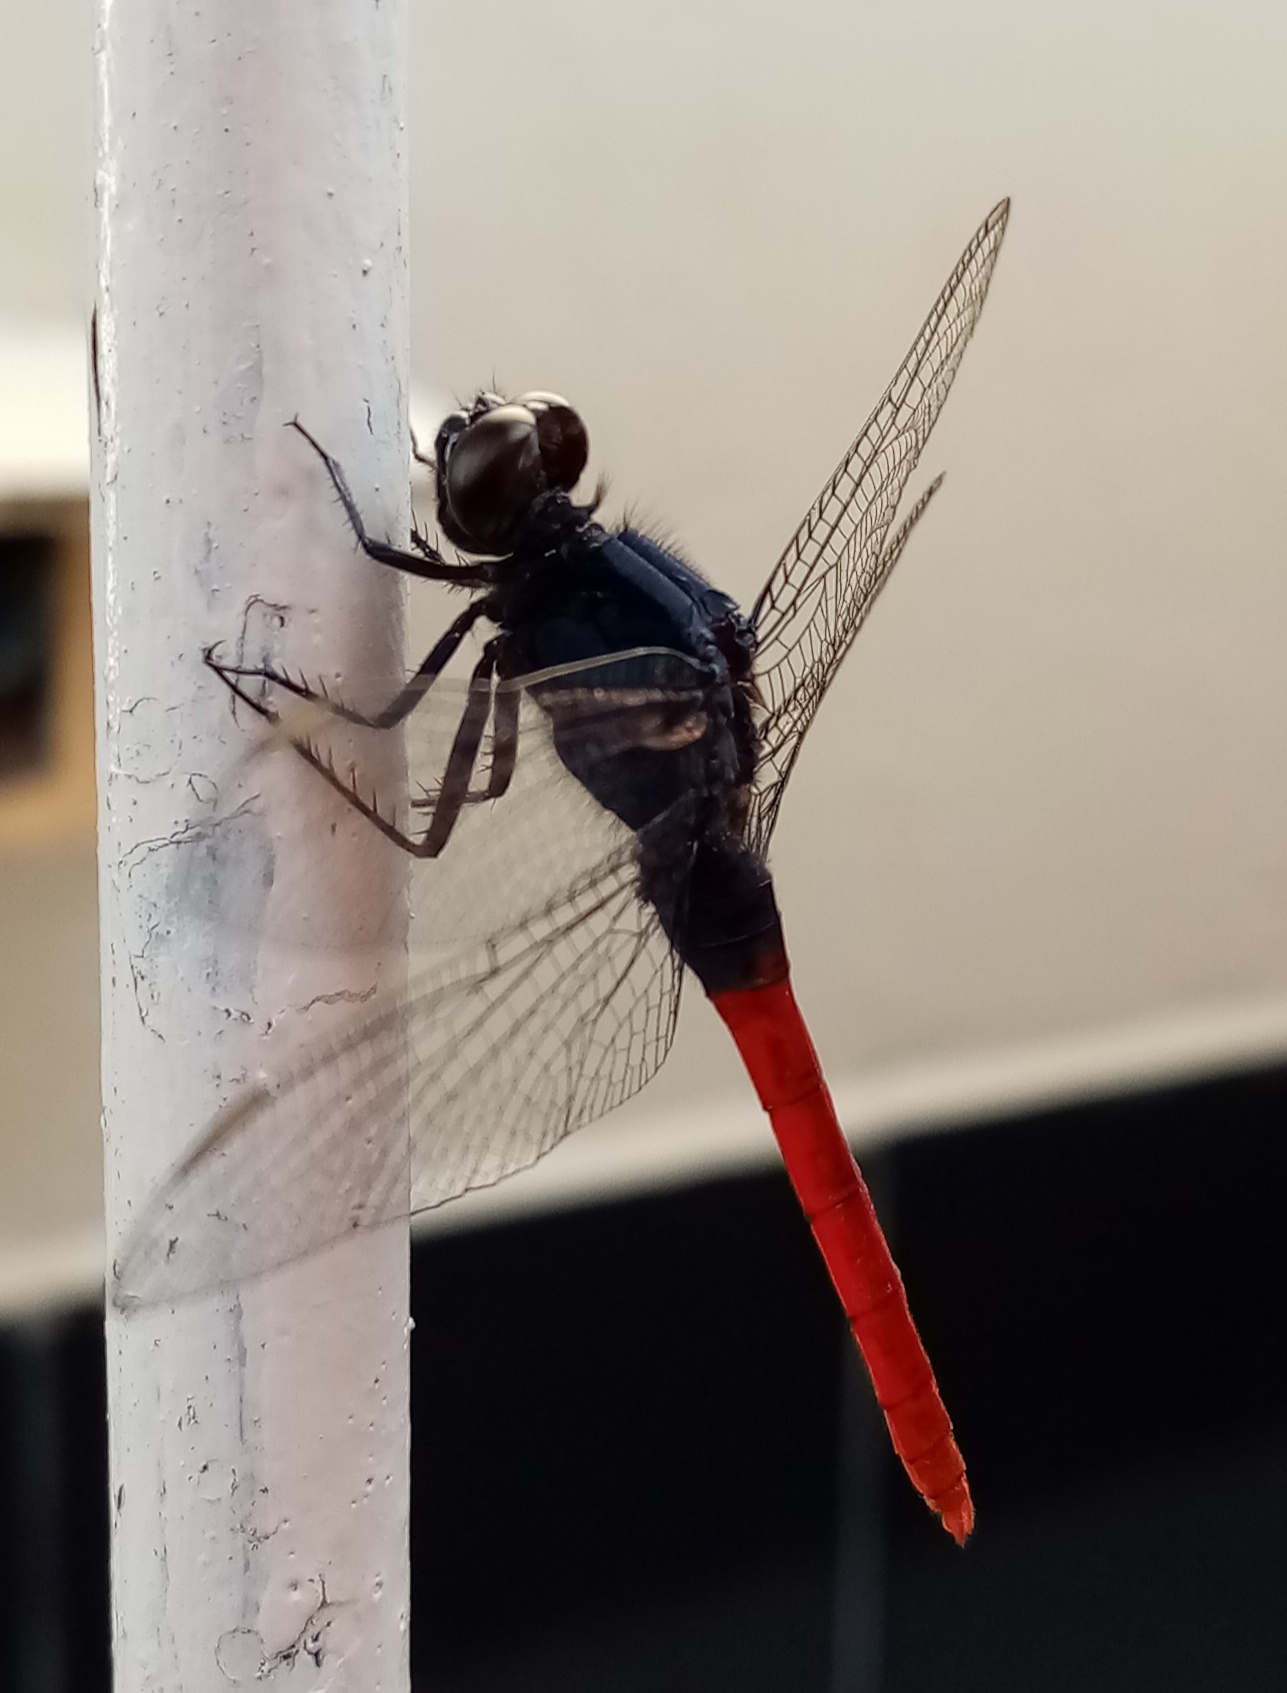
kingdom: Animalia
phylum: Arthropoda
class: Insecta
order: Odonata
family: Libellulidae
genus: Erythemis
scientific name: Erythemis peruviana
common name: Flame-tailed pondhawk
